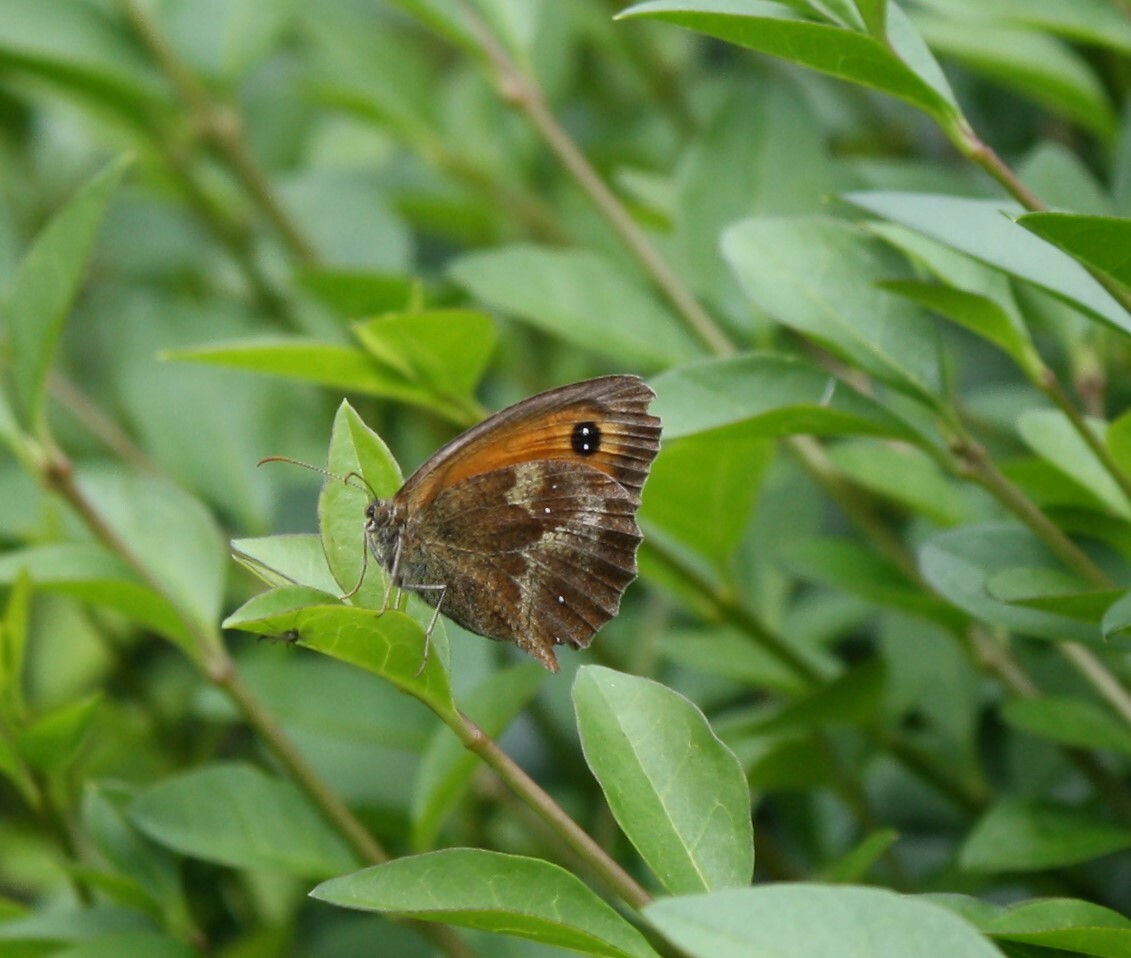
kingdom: Animalia
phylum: Arthropoda
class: Insecta
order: Lepidoptera
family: Nymphalidae
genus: Pyronia
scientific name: Pyronia tithonus
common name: Gatekeeper
